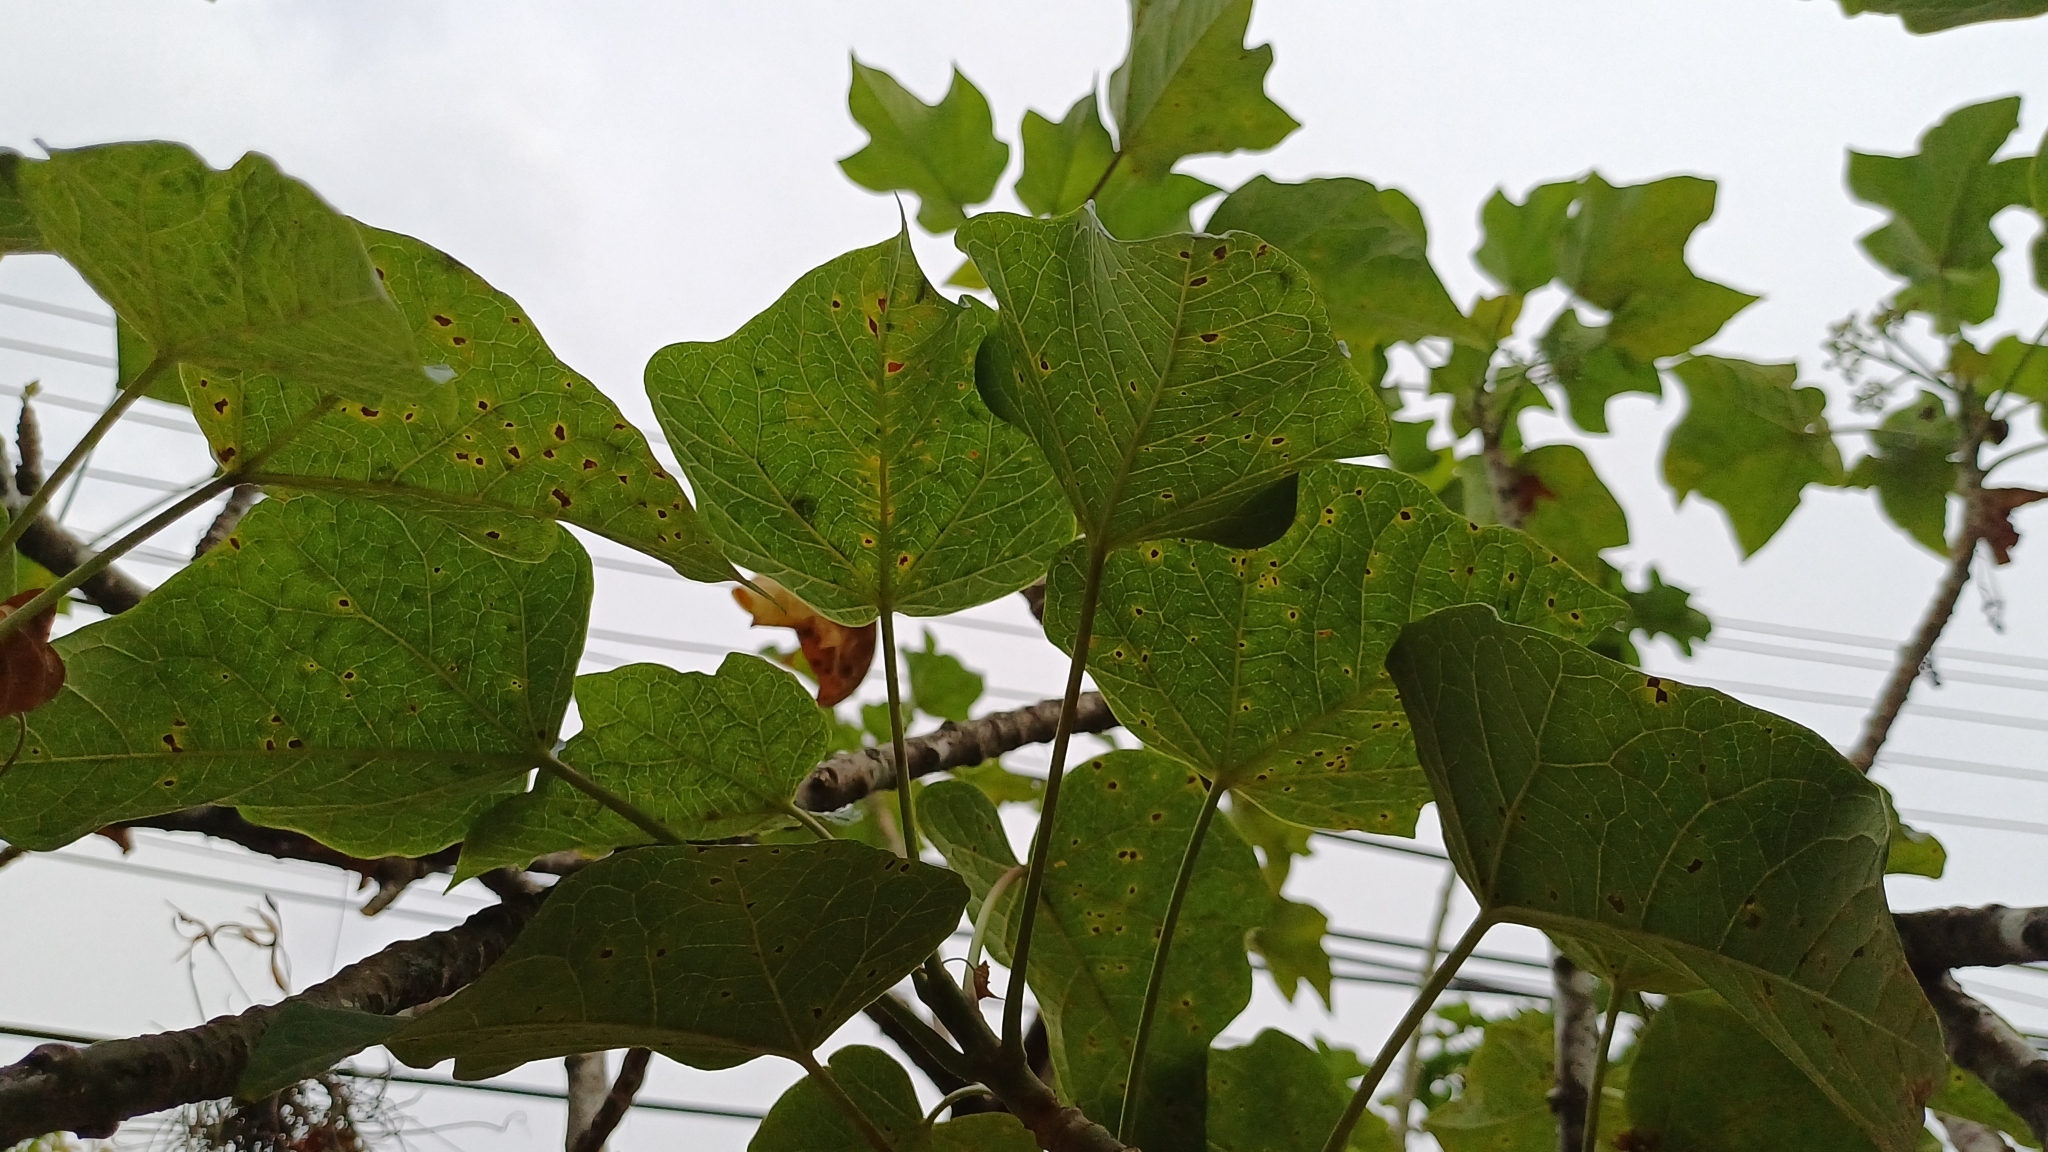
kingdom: Plantae
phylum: Tracheophyta
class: Magnoliopsida
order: Malpighiales
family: Euphorbiaceae
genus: Jatropha
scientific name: Jatropha curcas
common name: Barbados nut
